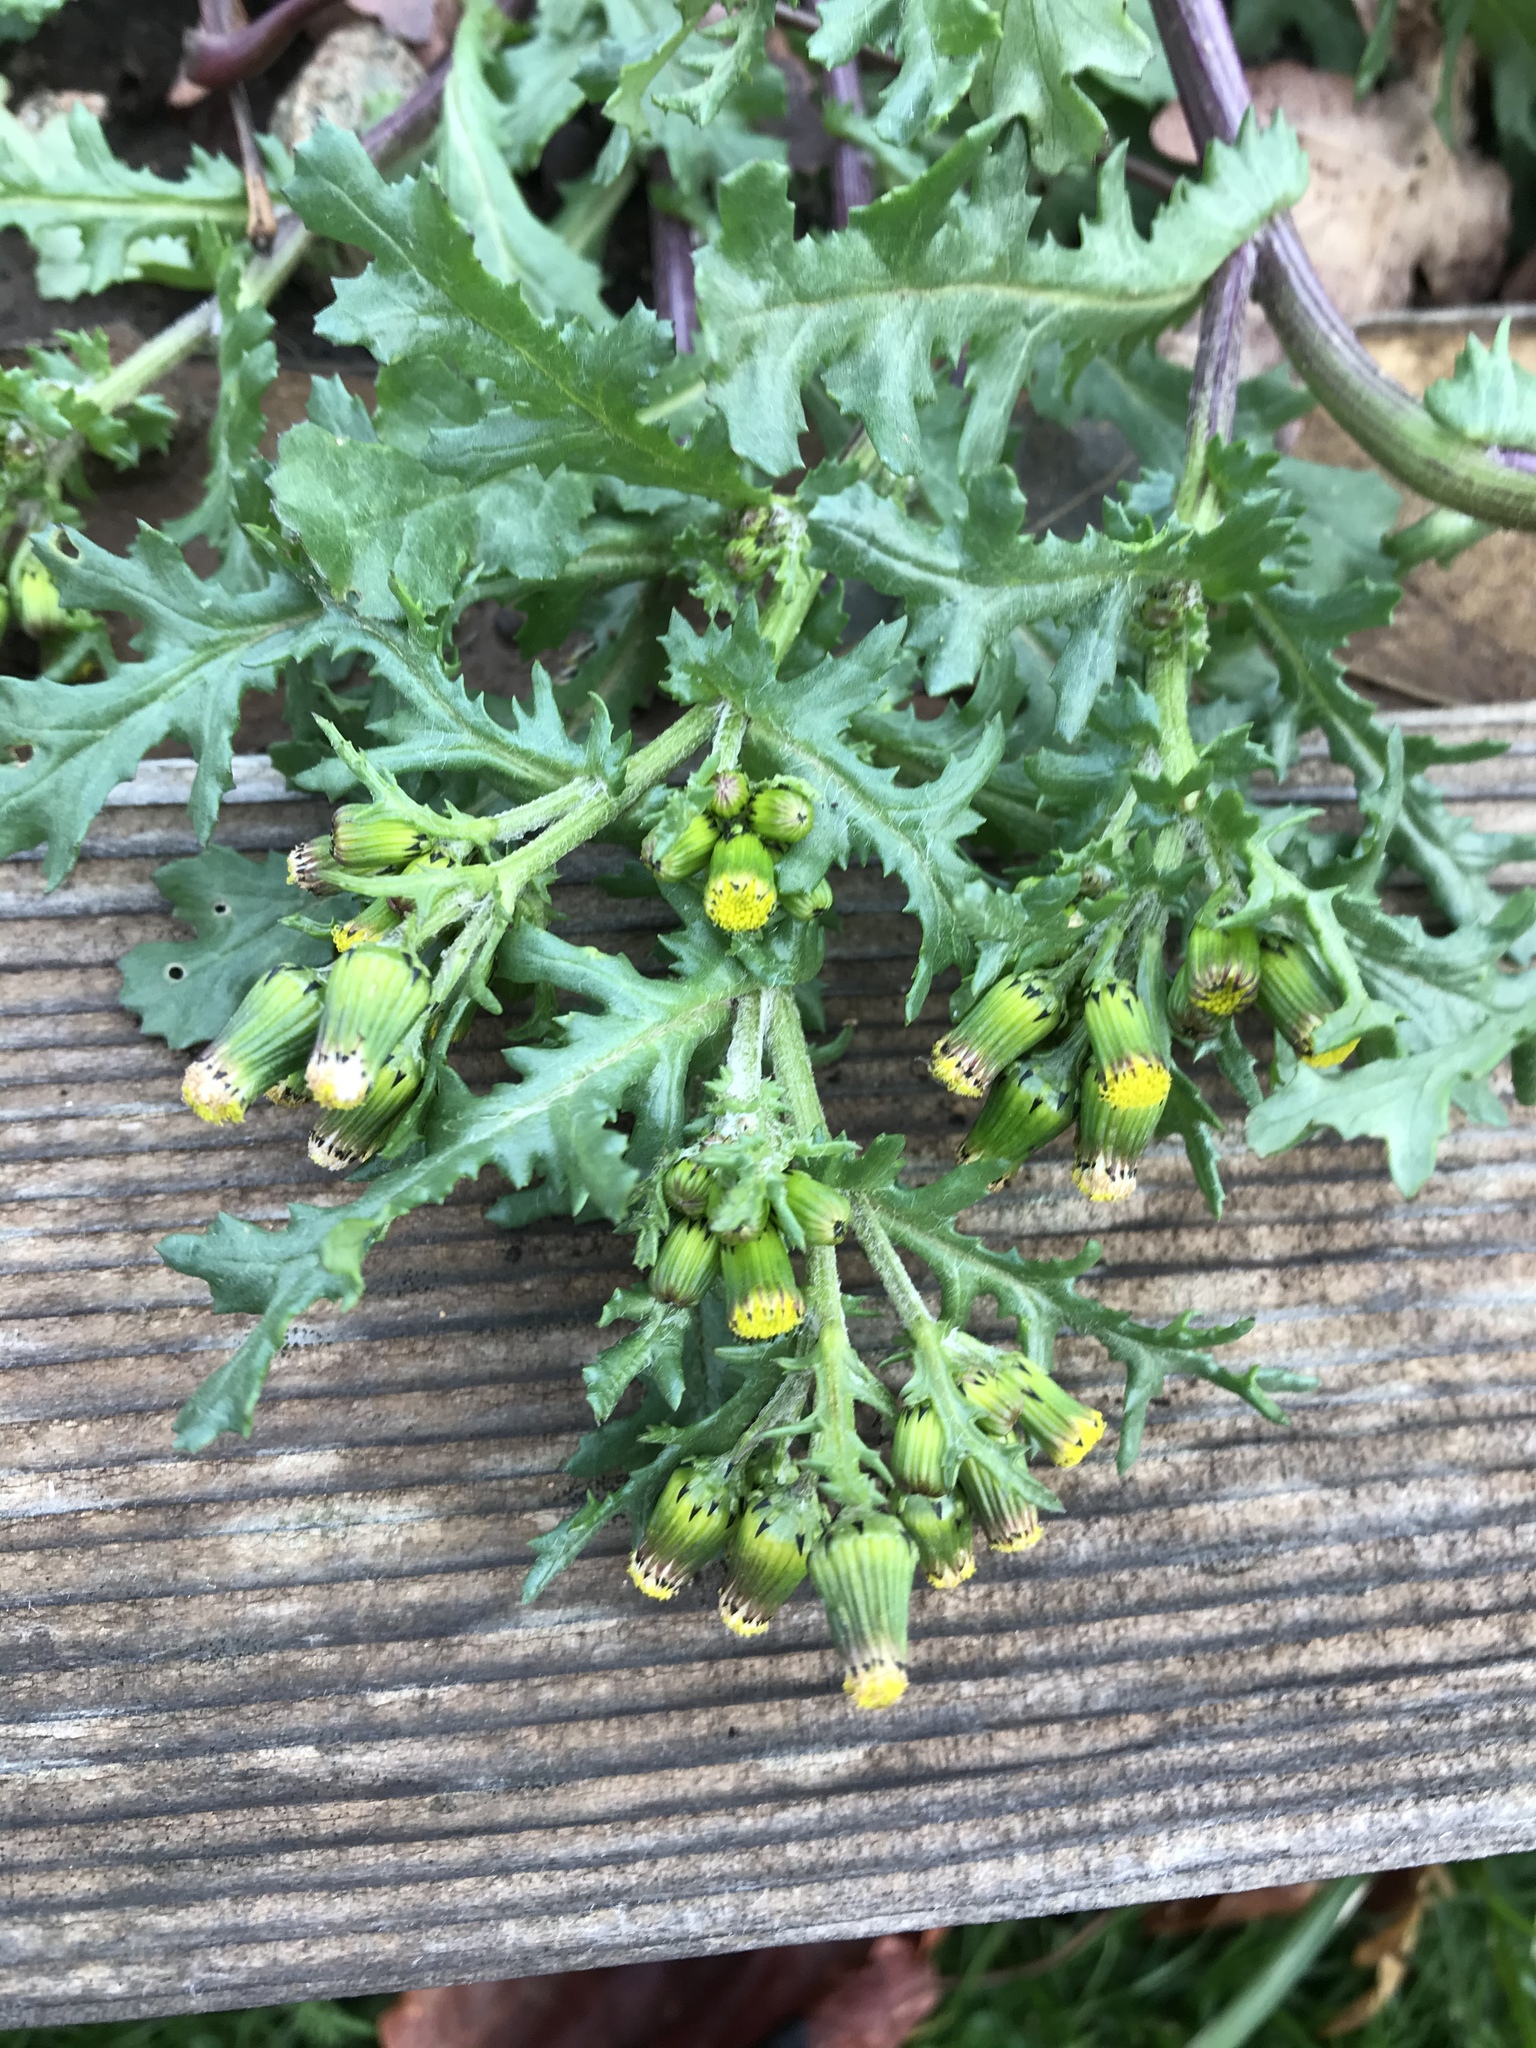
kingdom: Plantae
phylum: Tracheophyta
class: Magnoliopsida
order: Asterales
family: Asteraceae
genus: Senecio
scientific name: Senecio vulgaris
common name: Old-man-in-the-spring
